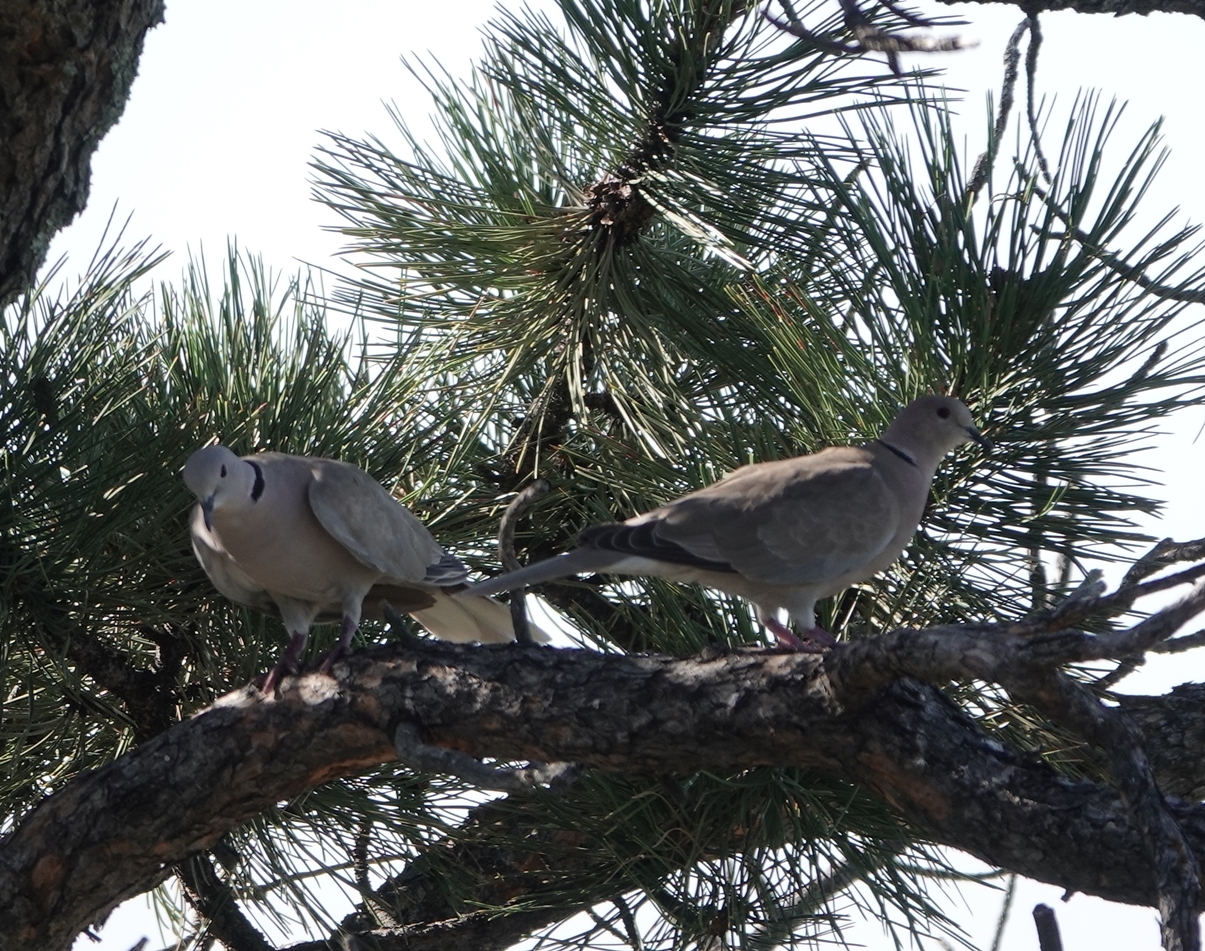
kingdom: Animalia
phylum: Chordata
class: Aves
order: Columbiformes
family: Columbidae
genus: Streptopelia
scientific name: Streptopelia decaocto
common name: Eurasian collared dove
